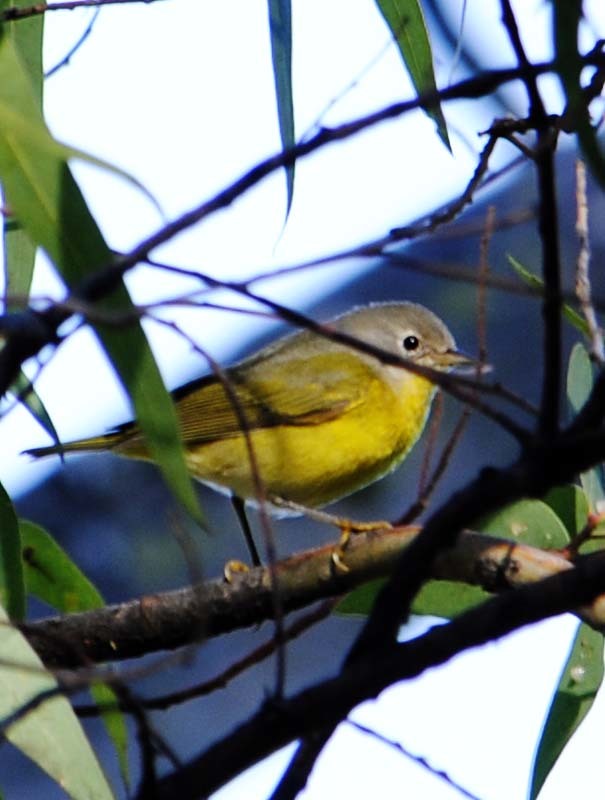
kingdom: Animalia
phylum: Chordata
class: Aves
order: Passeriformes
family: Parulidae
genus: Leiothlypis
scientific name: Leiothlypis ruficapilla
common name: Nashville warbler
